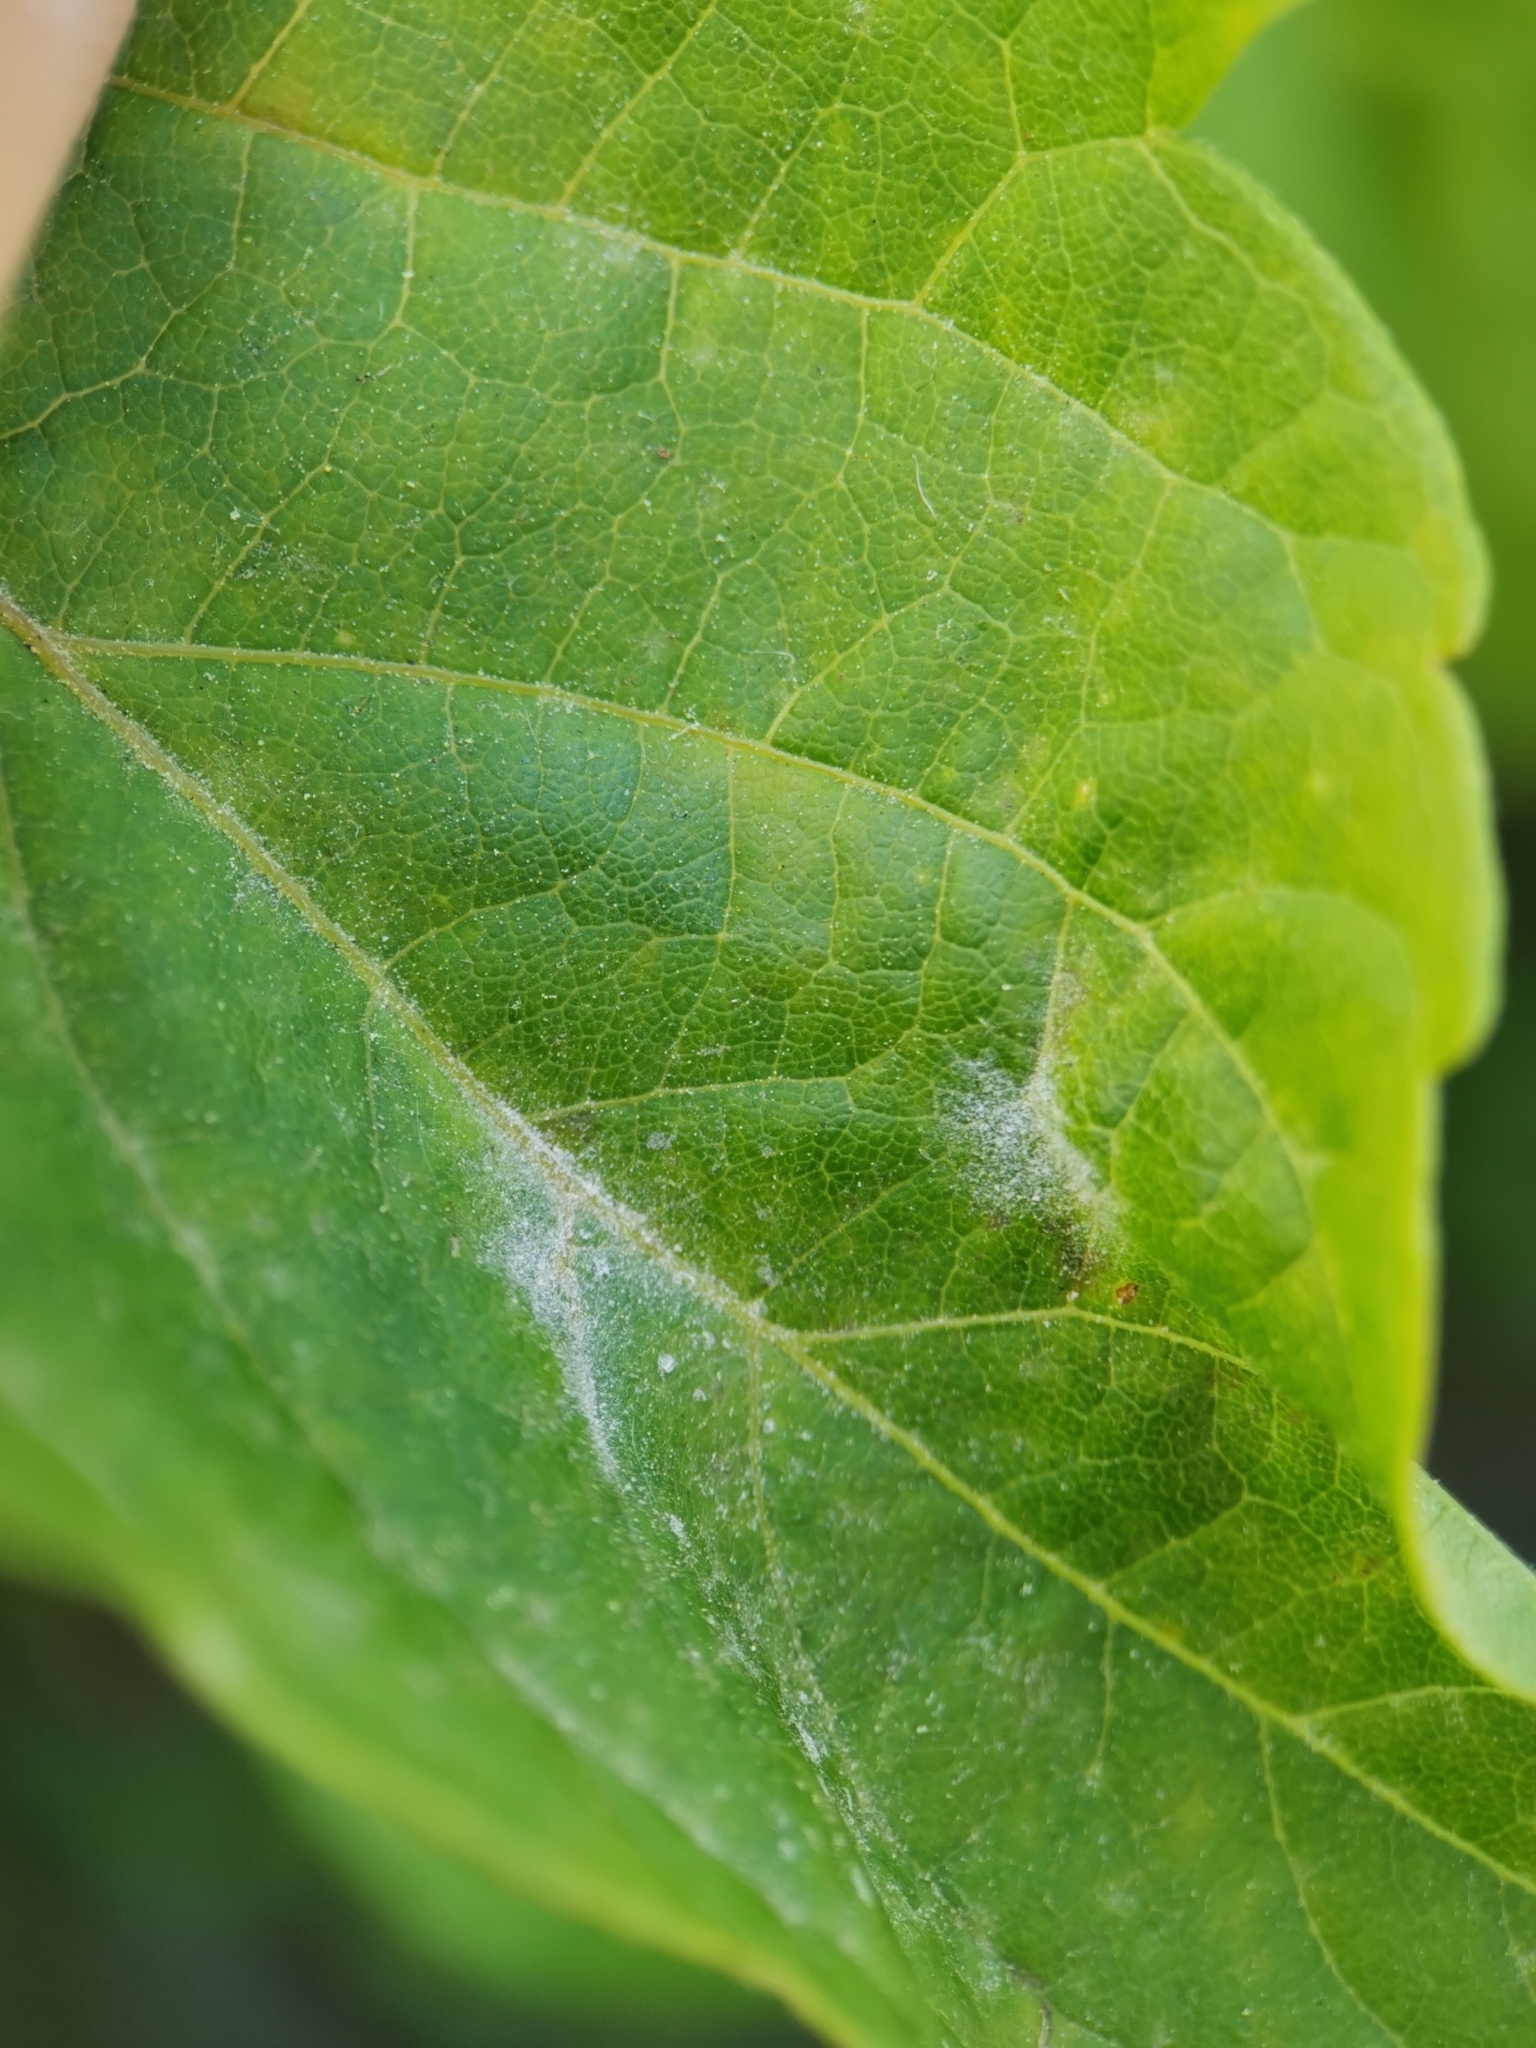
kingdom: Fungi
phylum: Ascomycota
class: Leotiomycetes
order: Helotiales
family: Erysiphaceae
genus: Sawadaea
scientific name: Sawadaea bicornis
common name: Maple mildew
